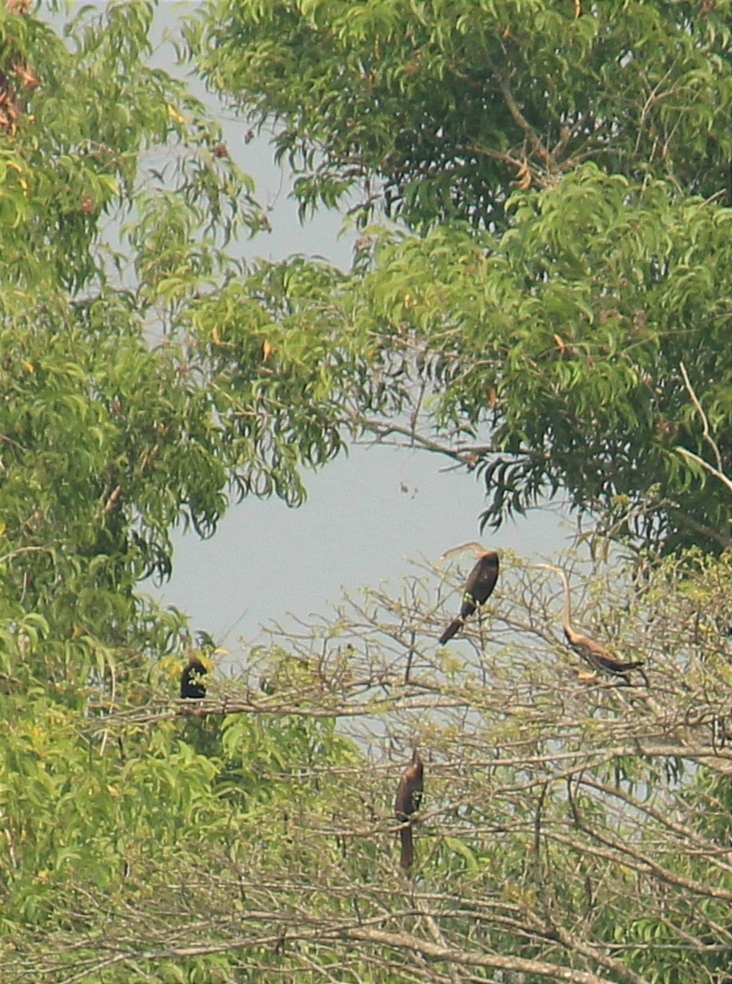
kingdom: Animalia
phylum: Chordata
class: Aves
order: Suliformes
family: Anhingidae
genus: Anhinga
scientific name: Anhinga melanogaster
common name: Oriental darter
